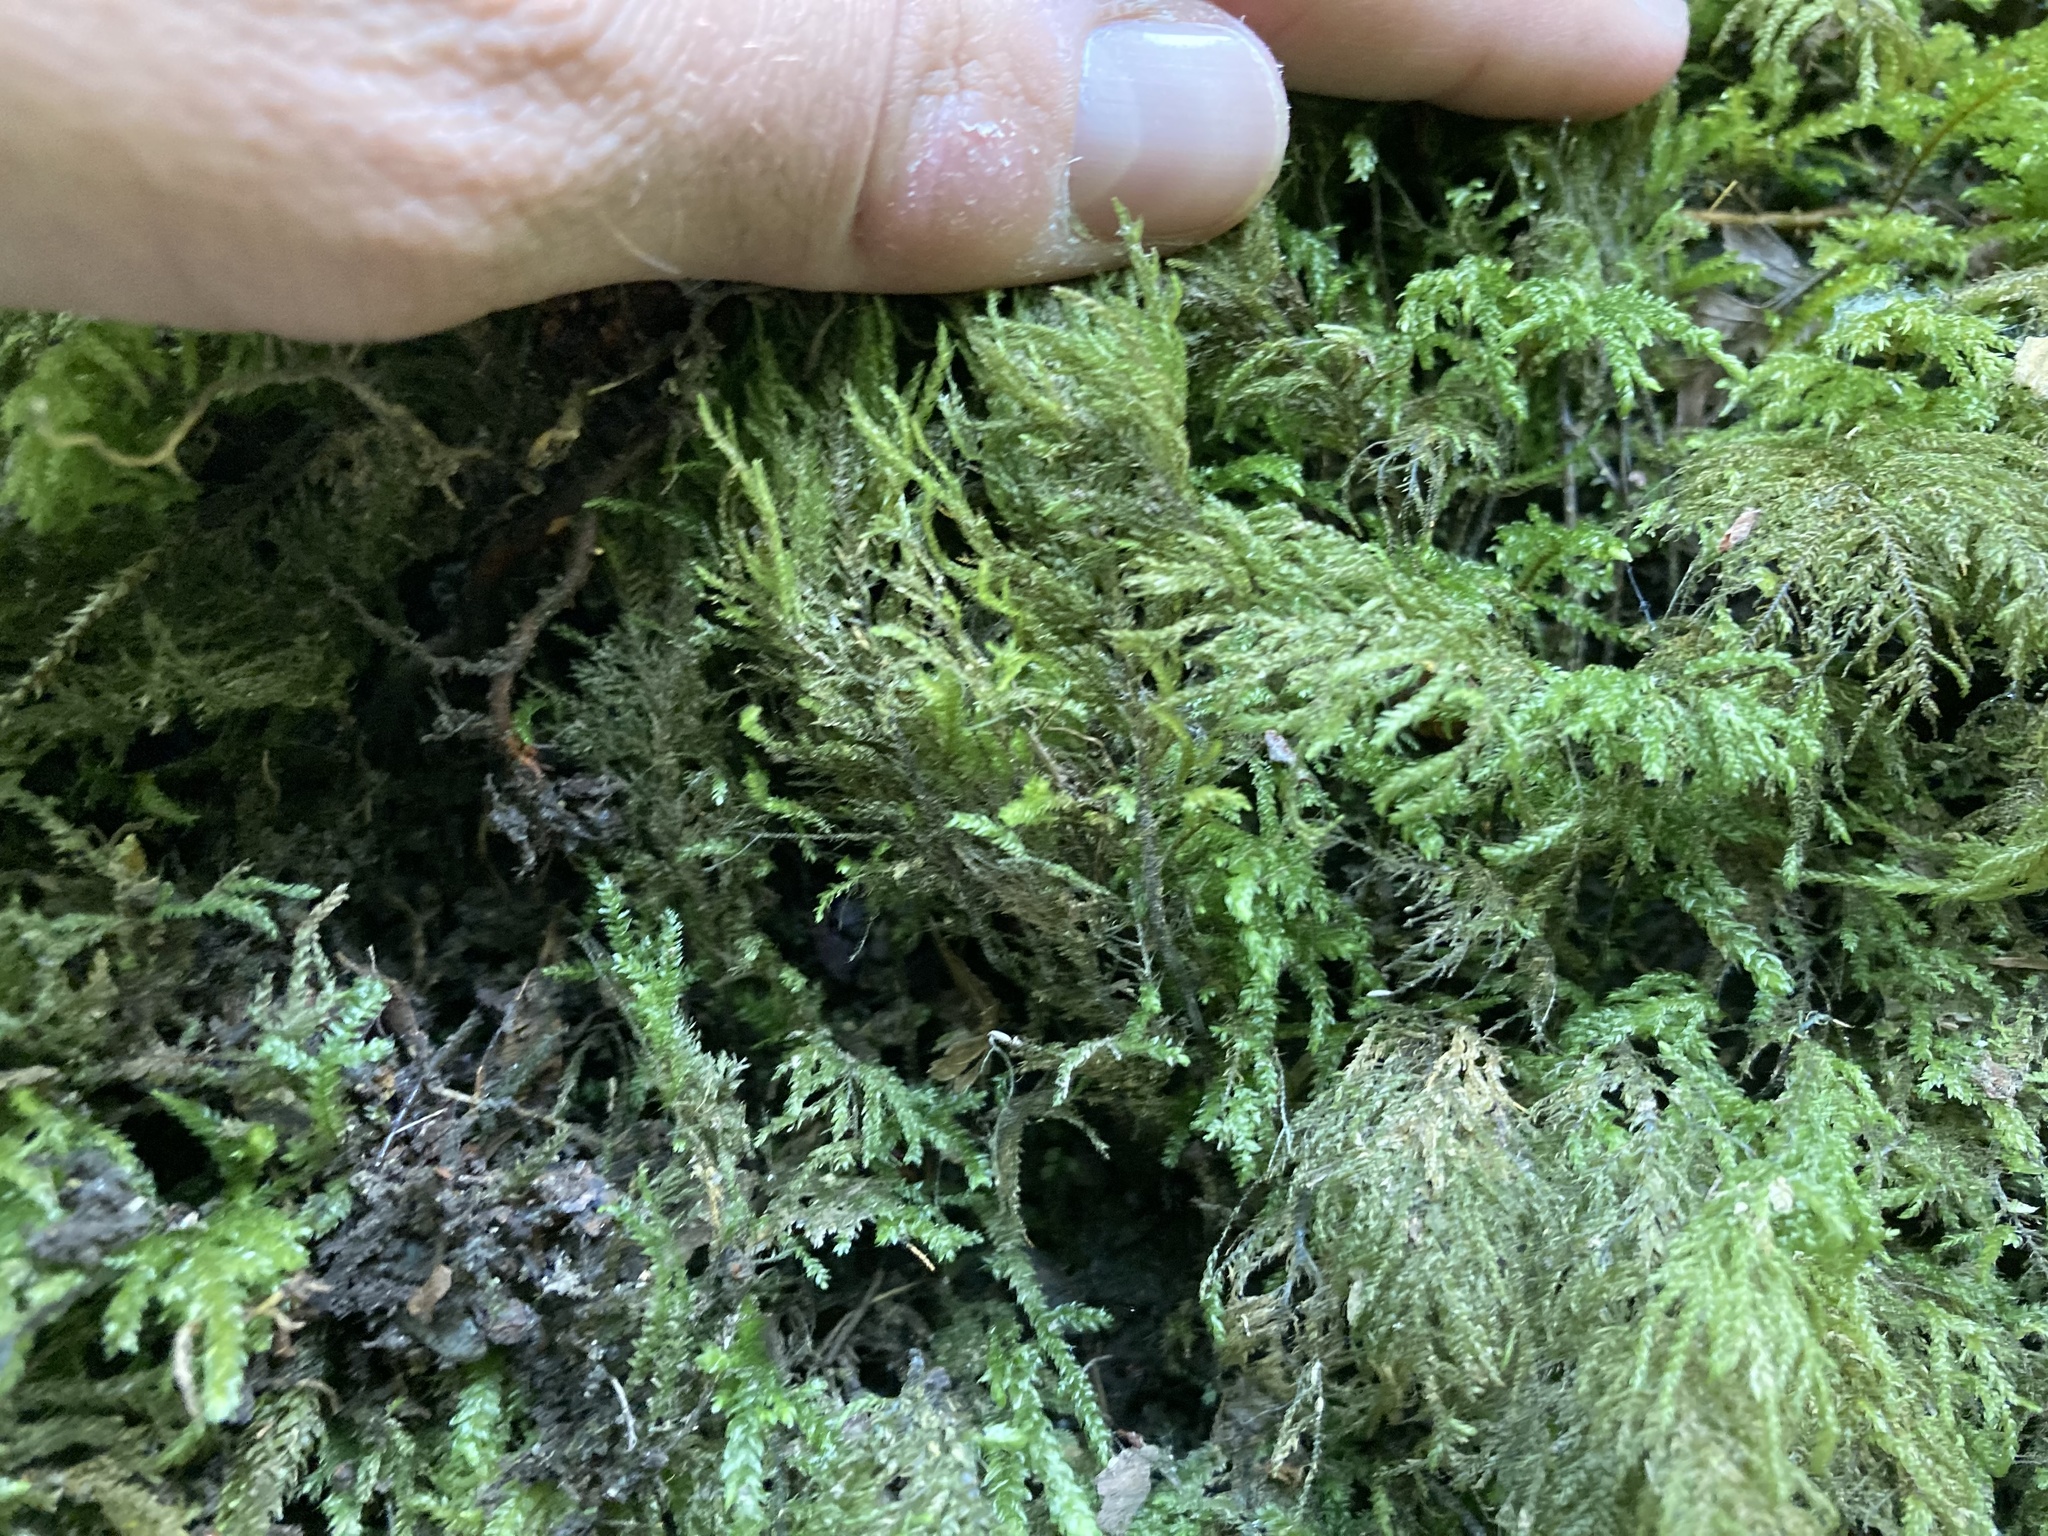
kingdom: Plantae
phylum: Bryophyta
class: Bryopsida
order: Hypnales
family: Neckeraceae
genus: Thamnobryum
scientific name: Thamnobryum alopecurum
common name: Fox-tail feather-moss
